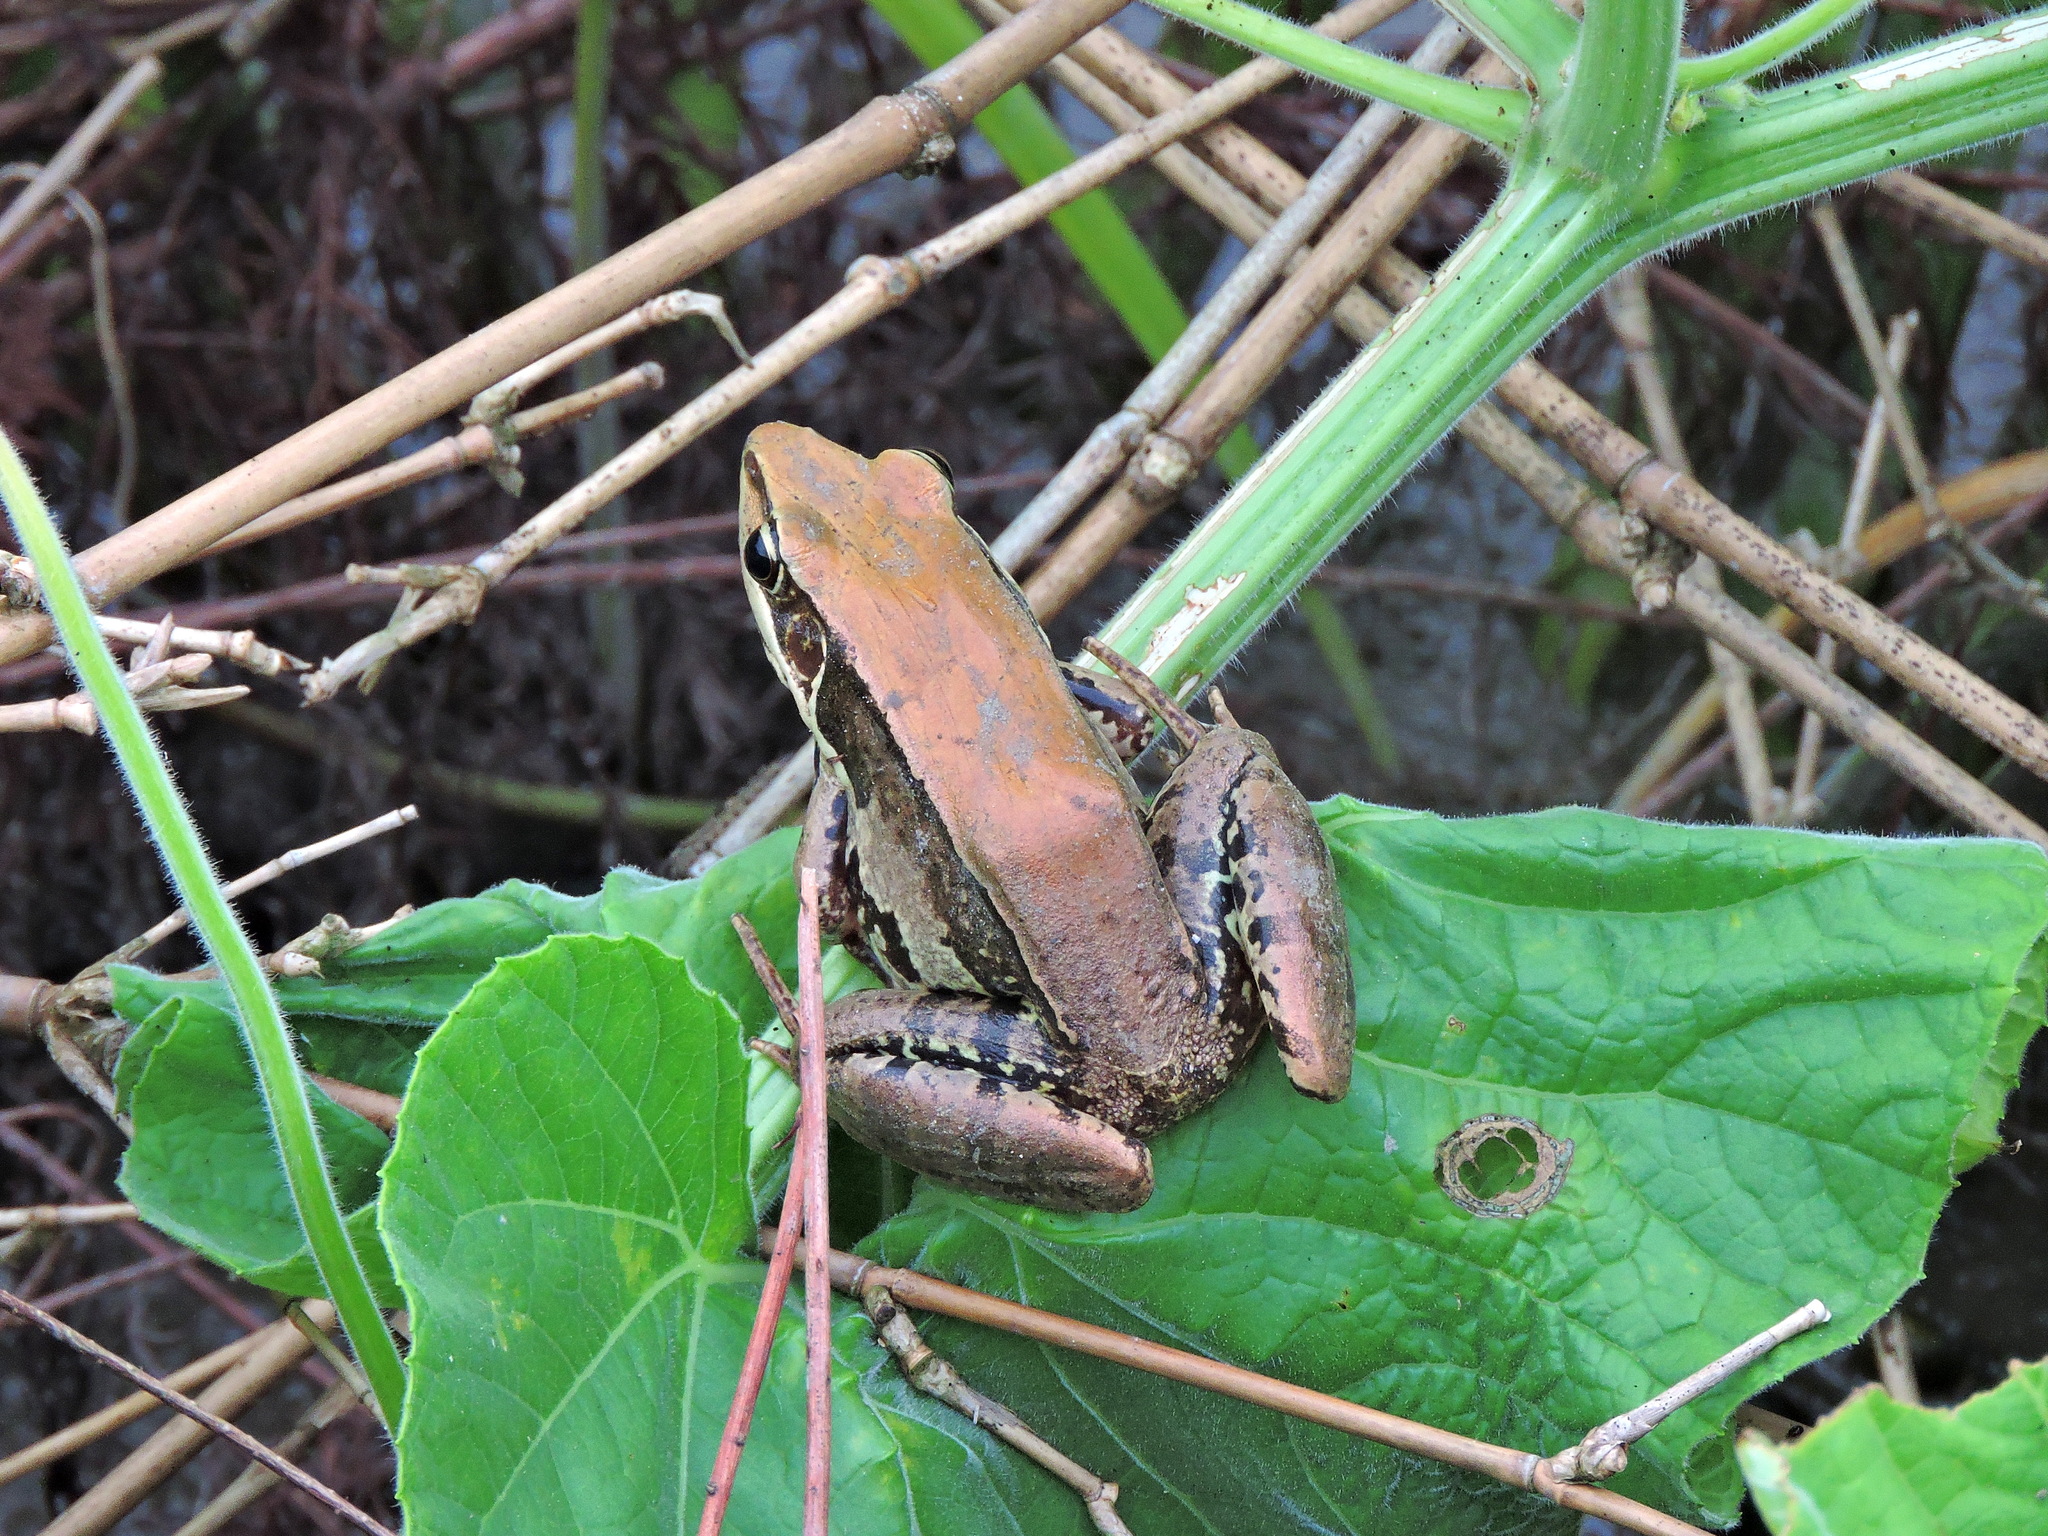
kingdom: Animalia
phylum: Chordata
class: Amphibia
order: Anura
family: Ranidae
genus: Sylvirana
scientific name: Sylvirana guentheri
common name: Guenther's amoy frog
